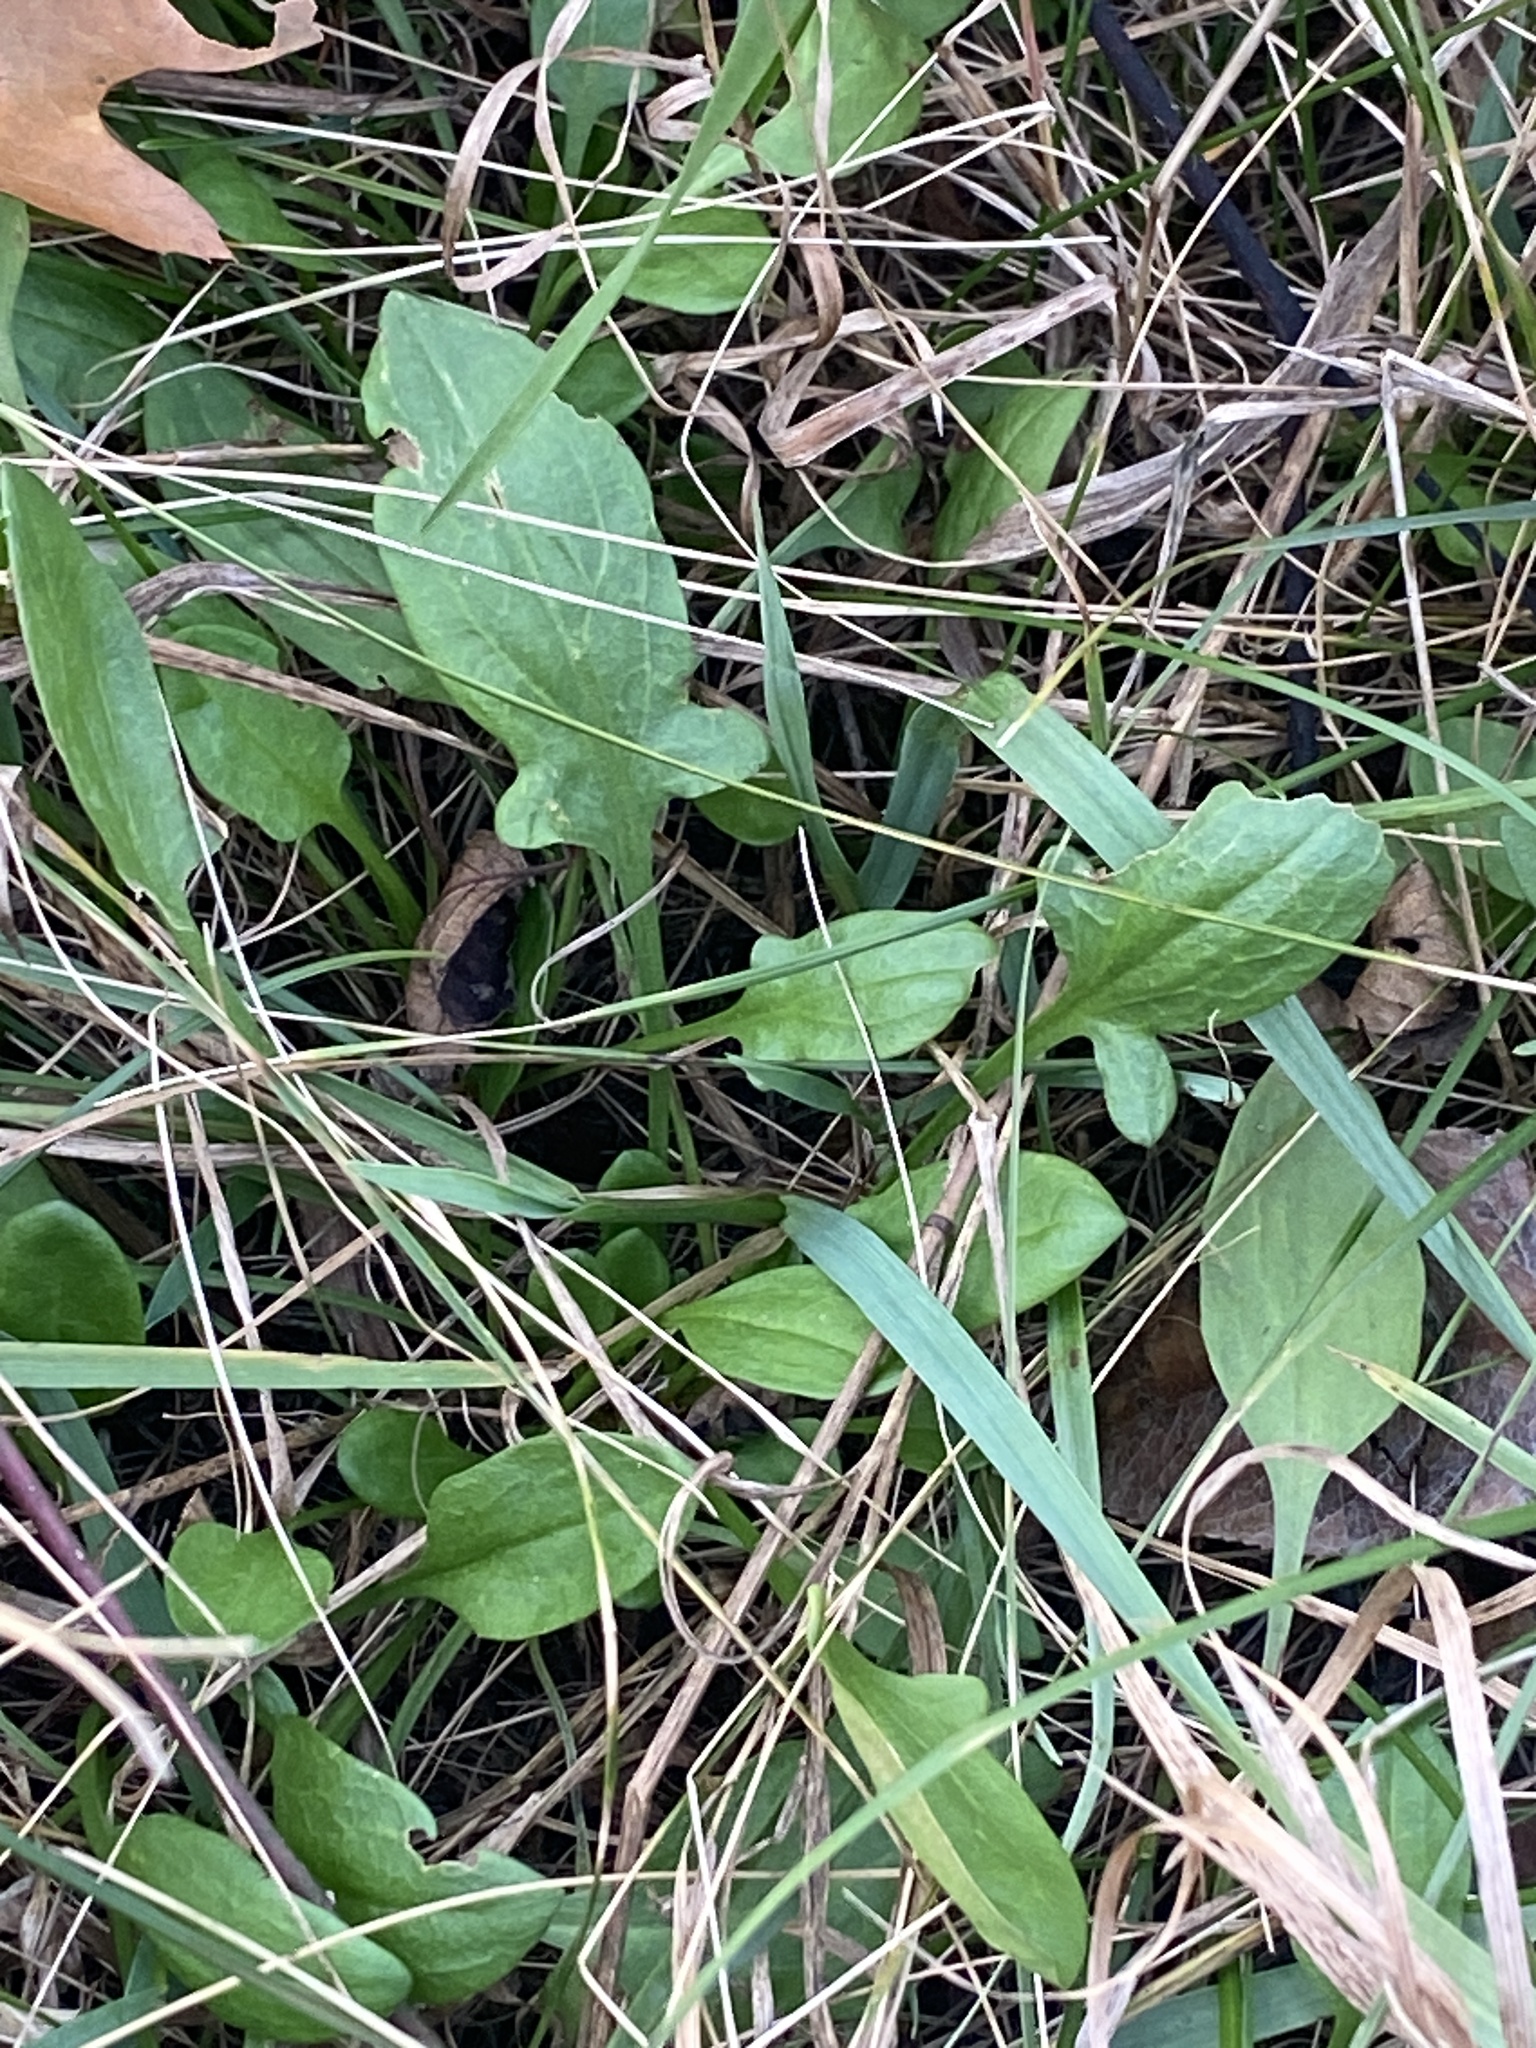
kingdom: Plantae
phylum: Tracheophyta
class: Magnoliopsida
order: Caryophyllales
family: Polygonaceae
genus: Rumex
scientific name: Rumex acetosella
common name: Common sheep sorrel
